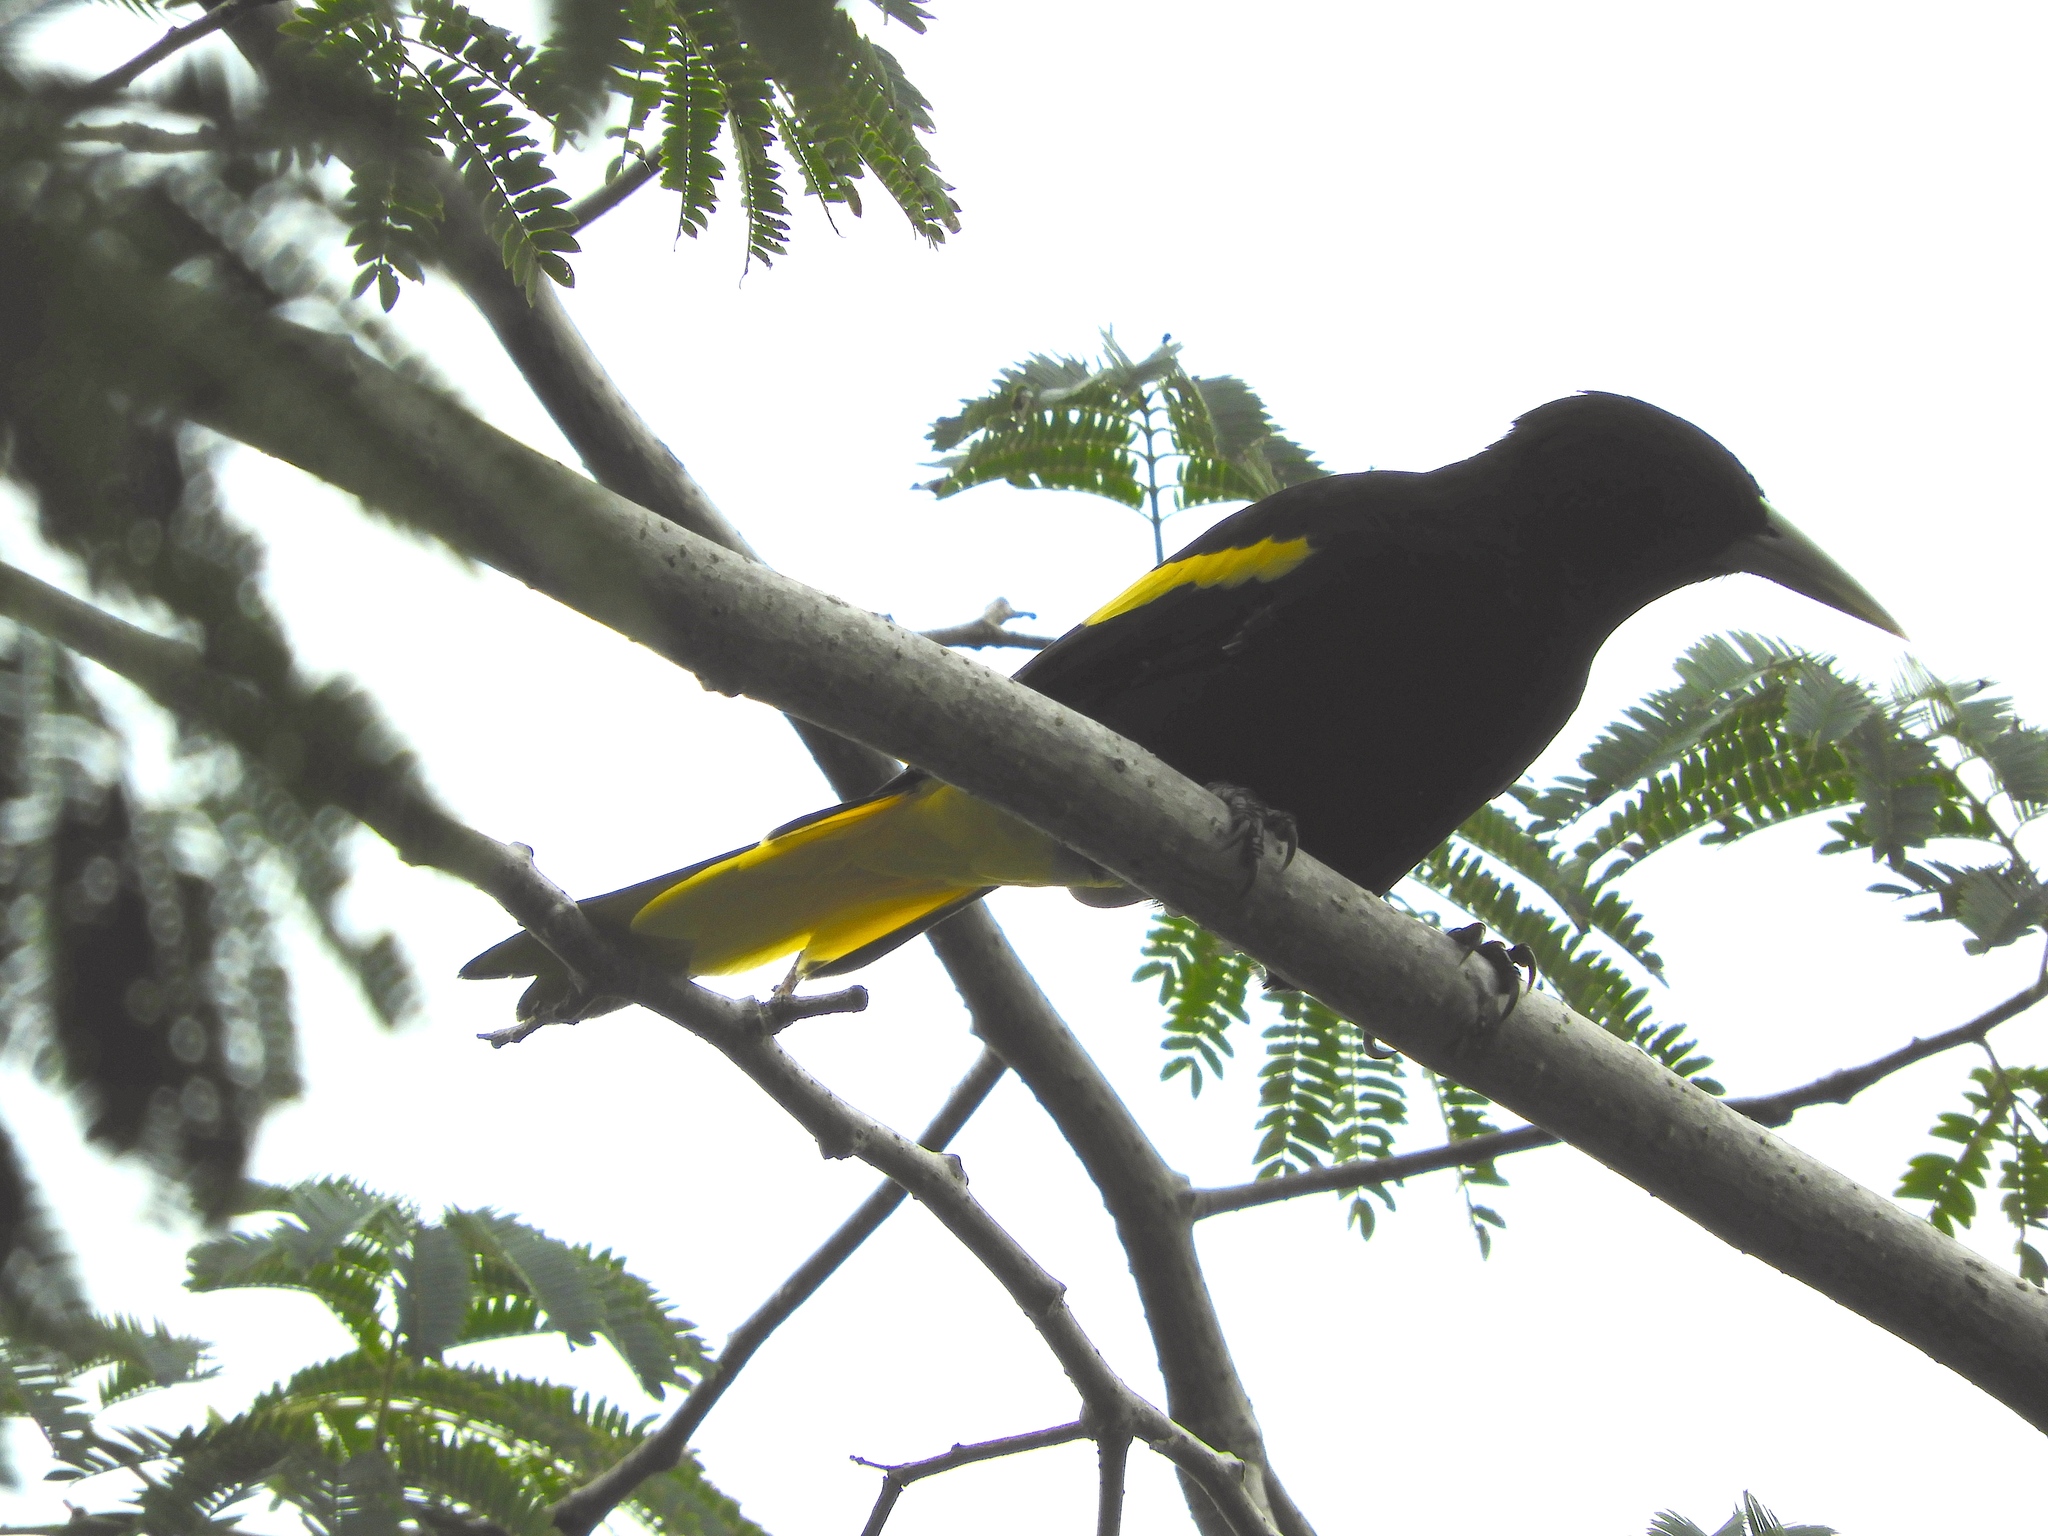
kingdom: Animalia
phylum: Chordata
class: Aves
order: Passeriformes
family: Icteridae
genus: Cacicus
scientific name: Cacicus melanicterus
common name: Yellow-winged cacique
